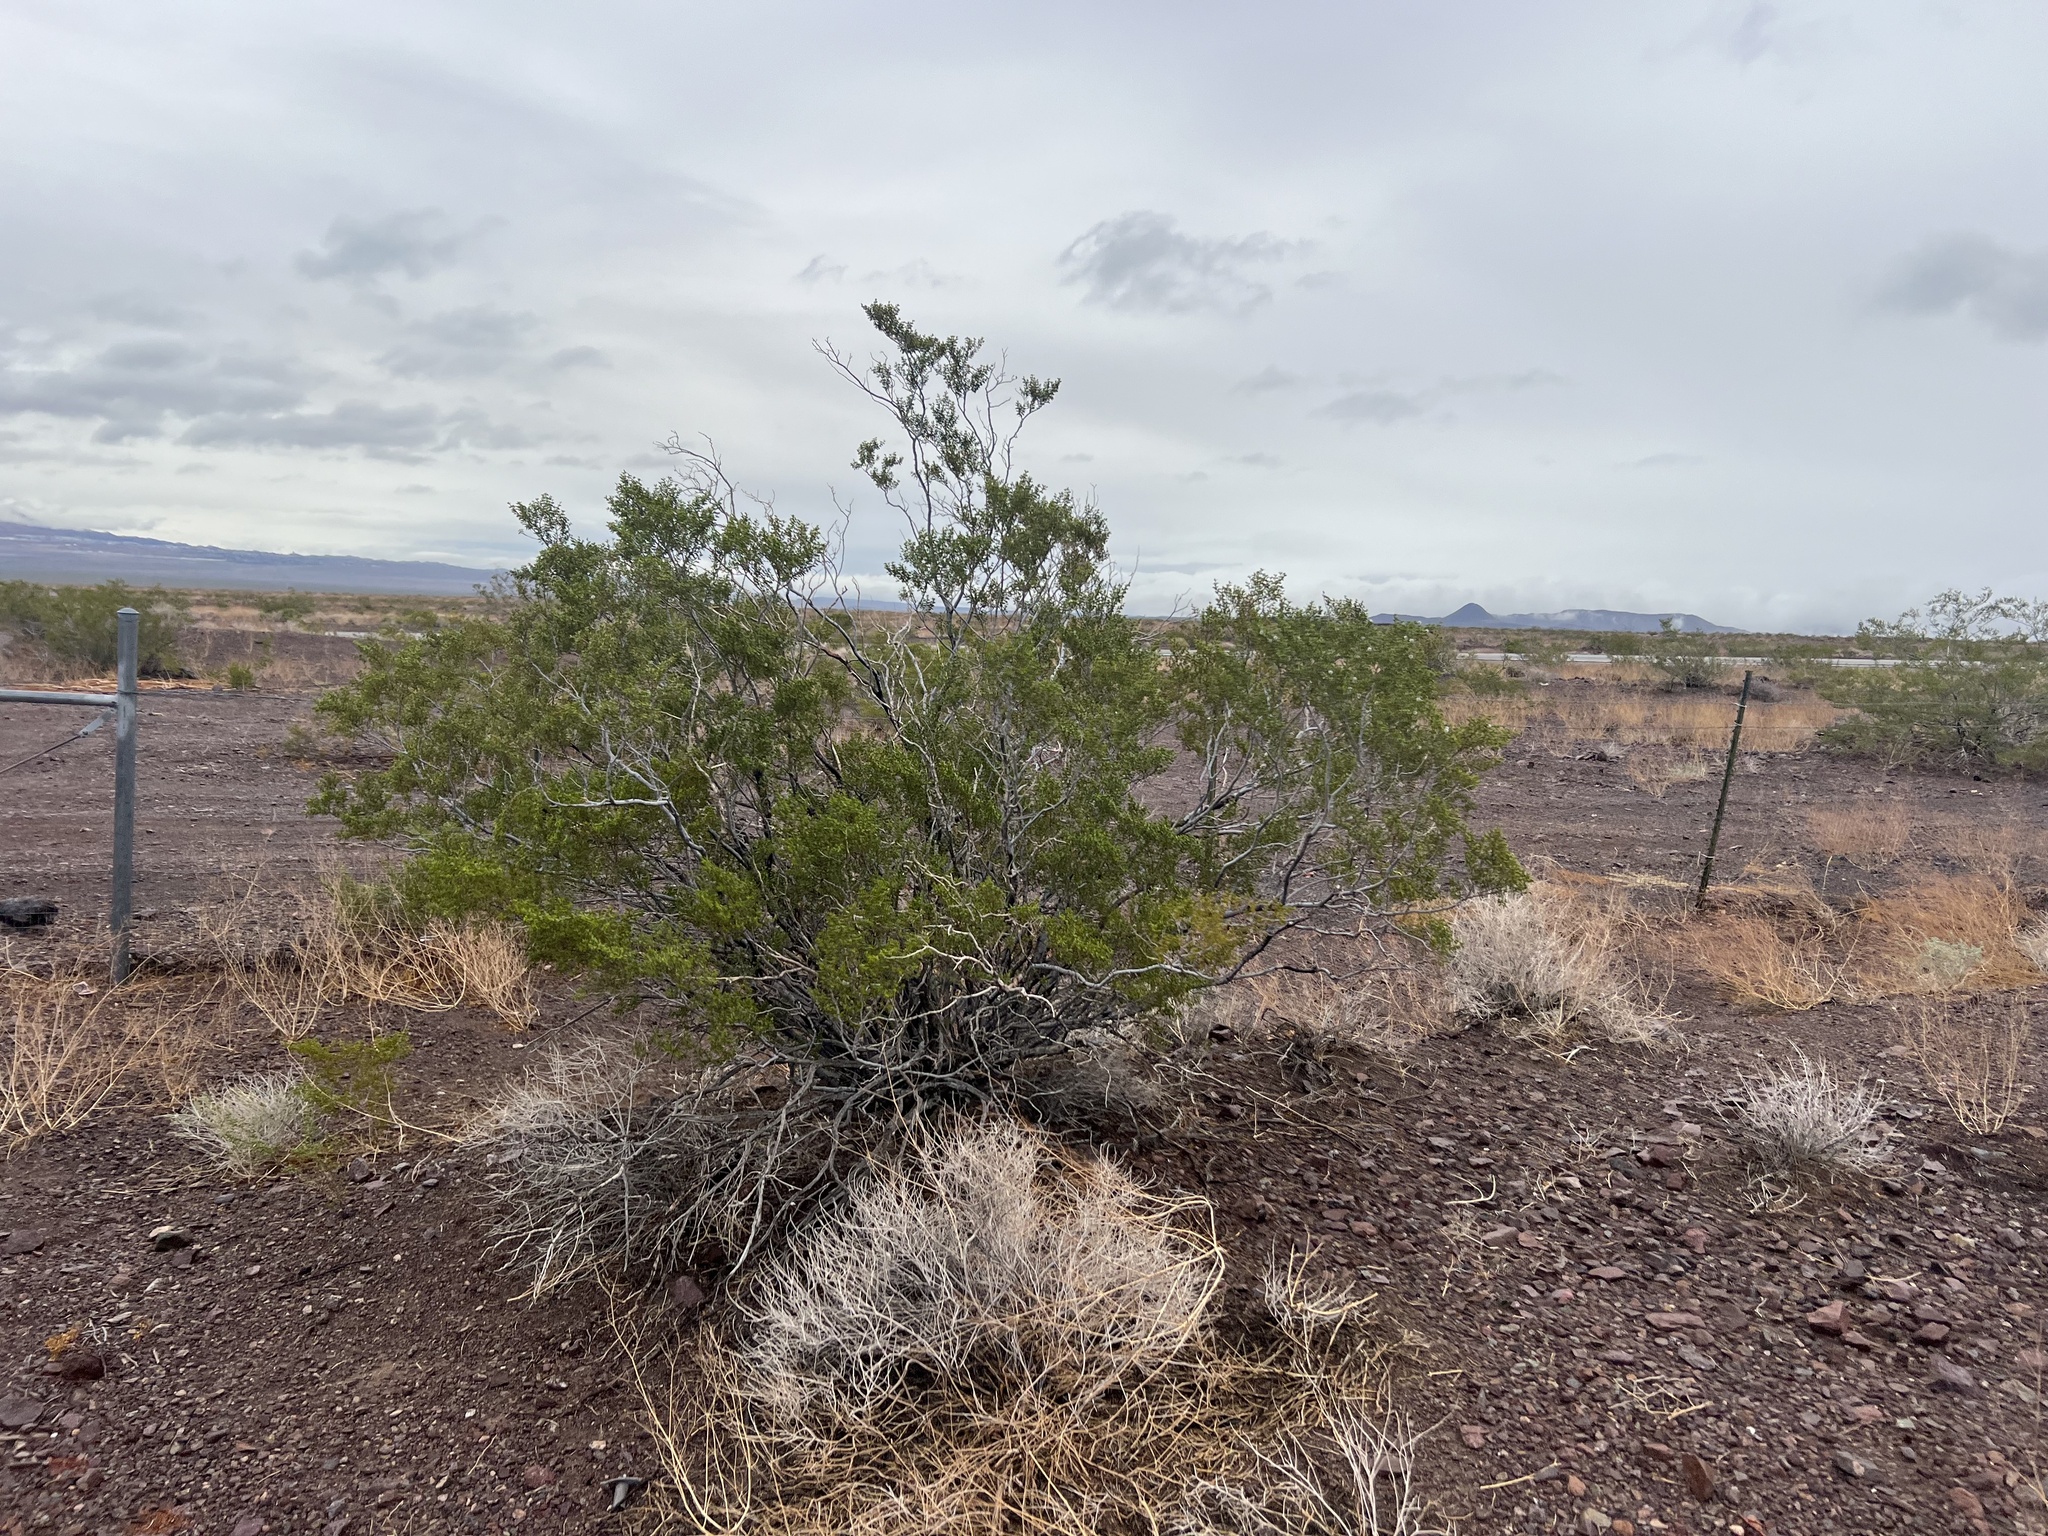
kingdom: Plantae
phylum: Tracheophyta
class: Magnoliopsida
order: Zygophyllales
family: Zygophyllaceae
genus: Larrea
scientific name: Larrea tridentata
